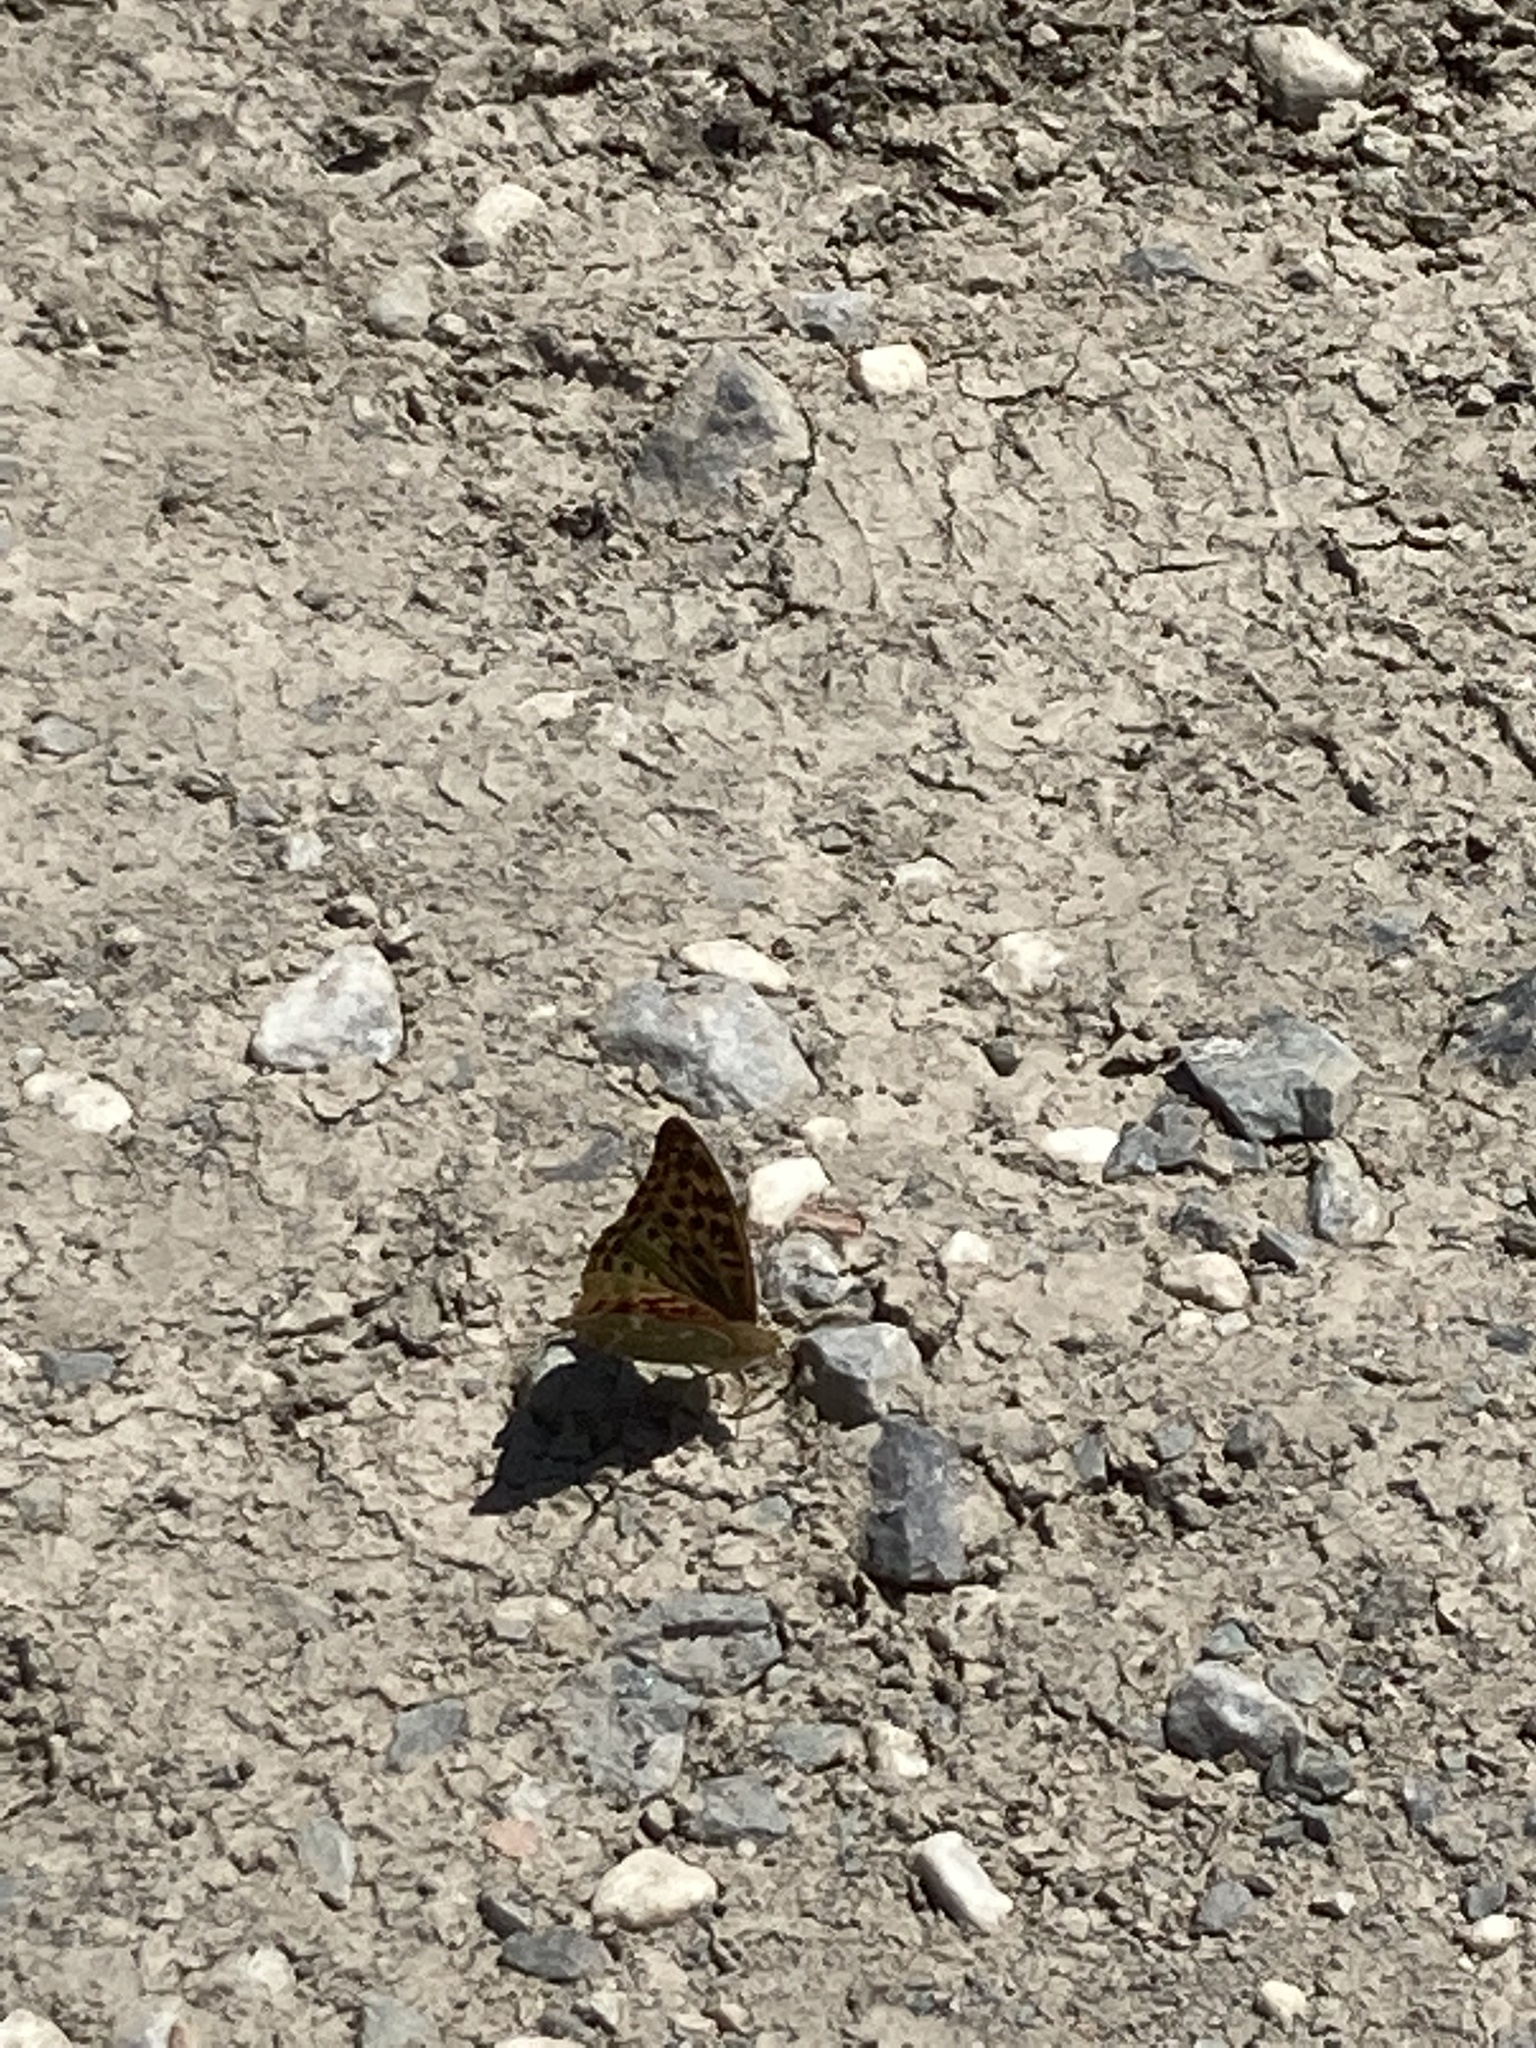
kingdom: Animalia
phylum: Arthropoda
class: Insecta
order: Lepidoptera
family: Nymphalidae
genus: Damora
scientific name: Damora pandora
